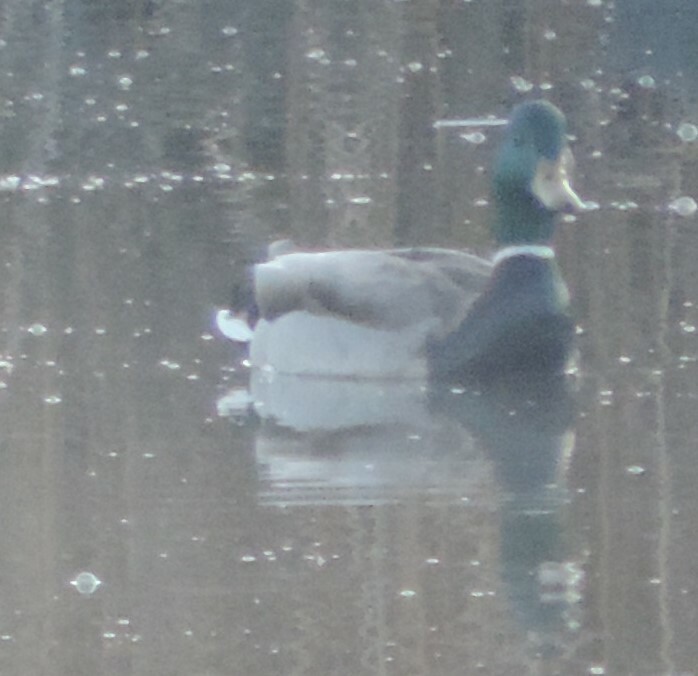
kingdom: Animalia
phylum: Chordata
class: Aves
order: Anseriformes
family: Anatidae
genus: Anas
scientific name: Anas platyrhynchos
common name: Mallard
